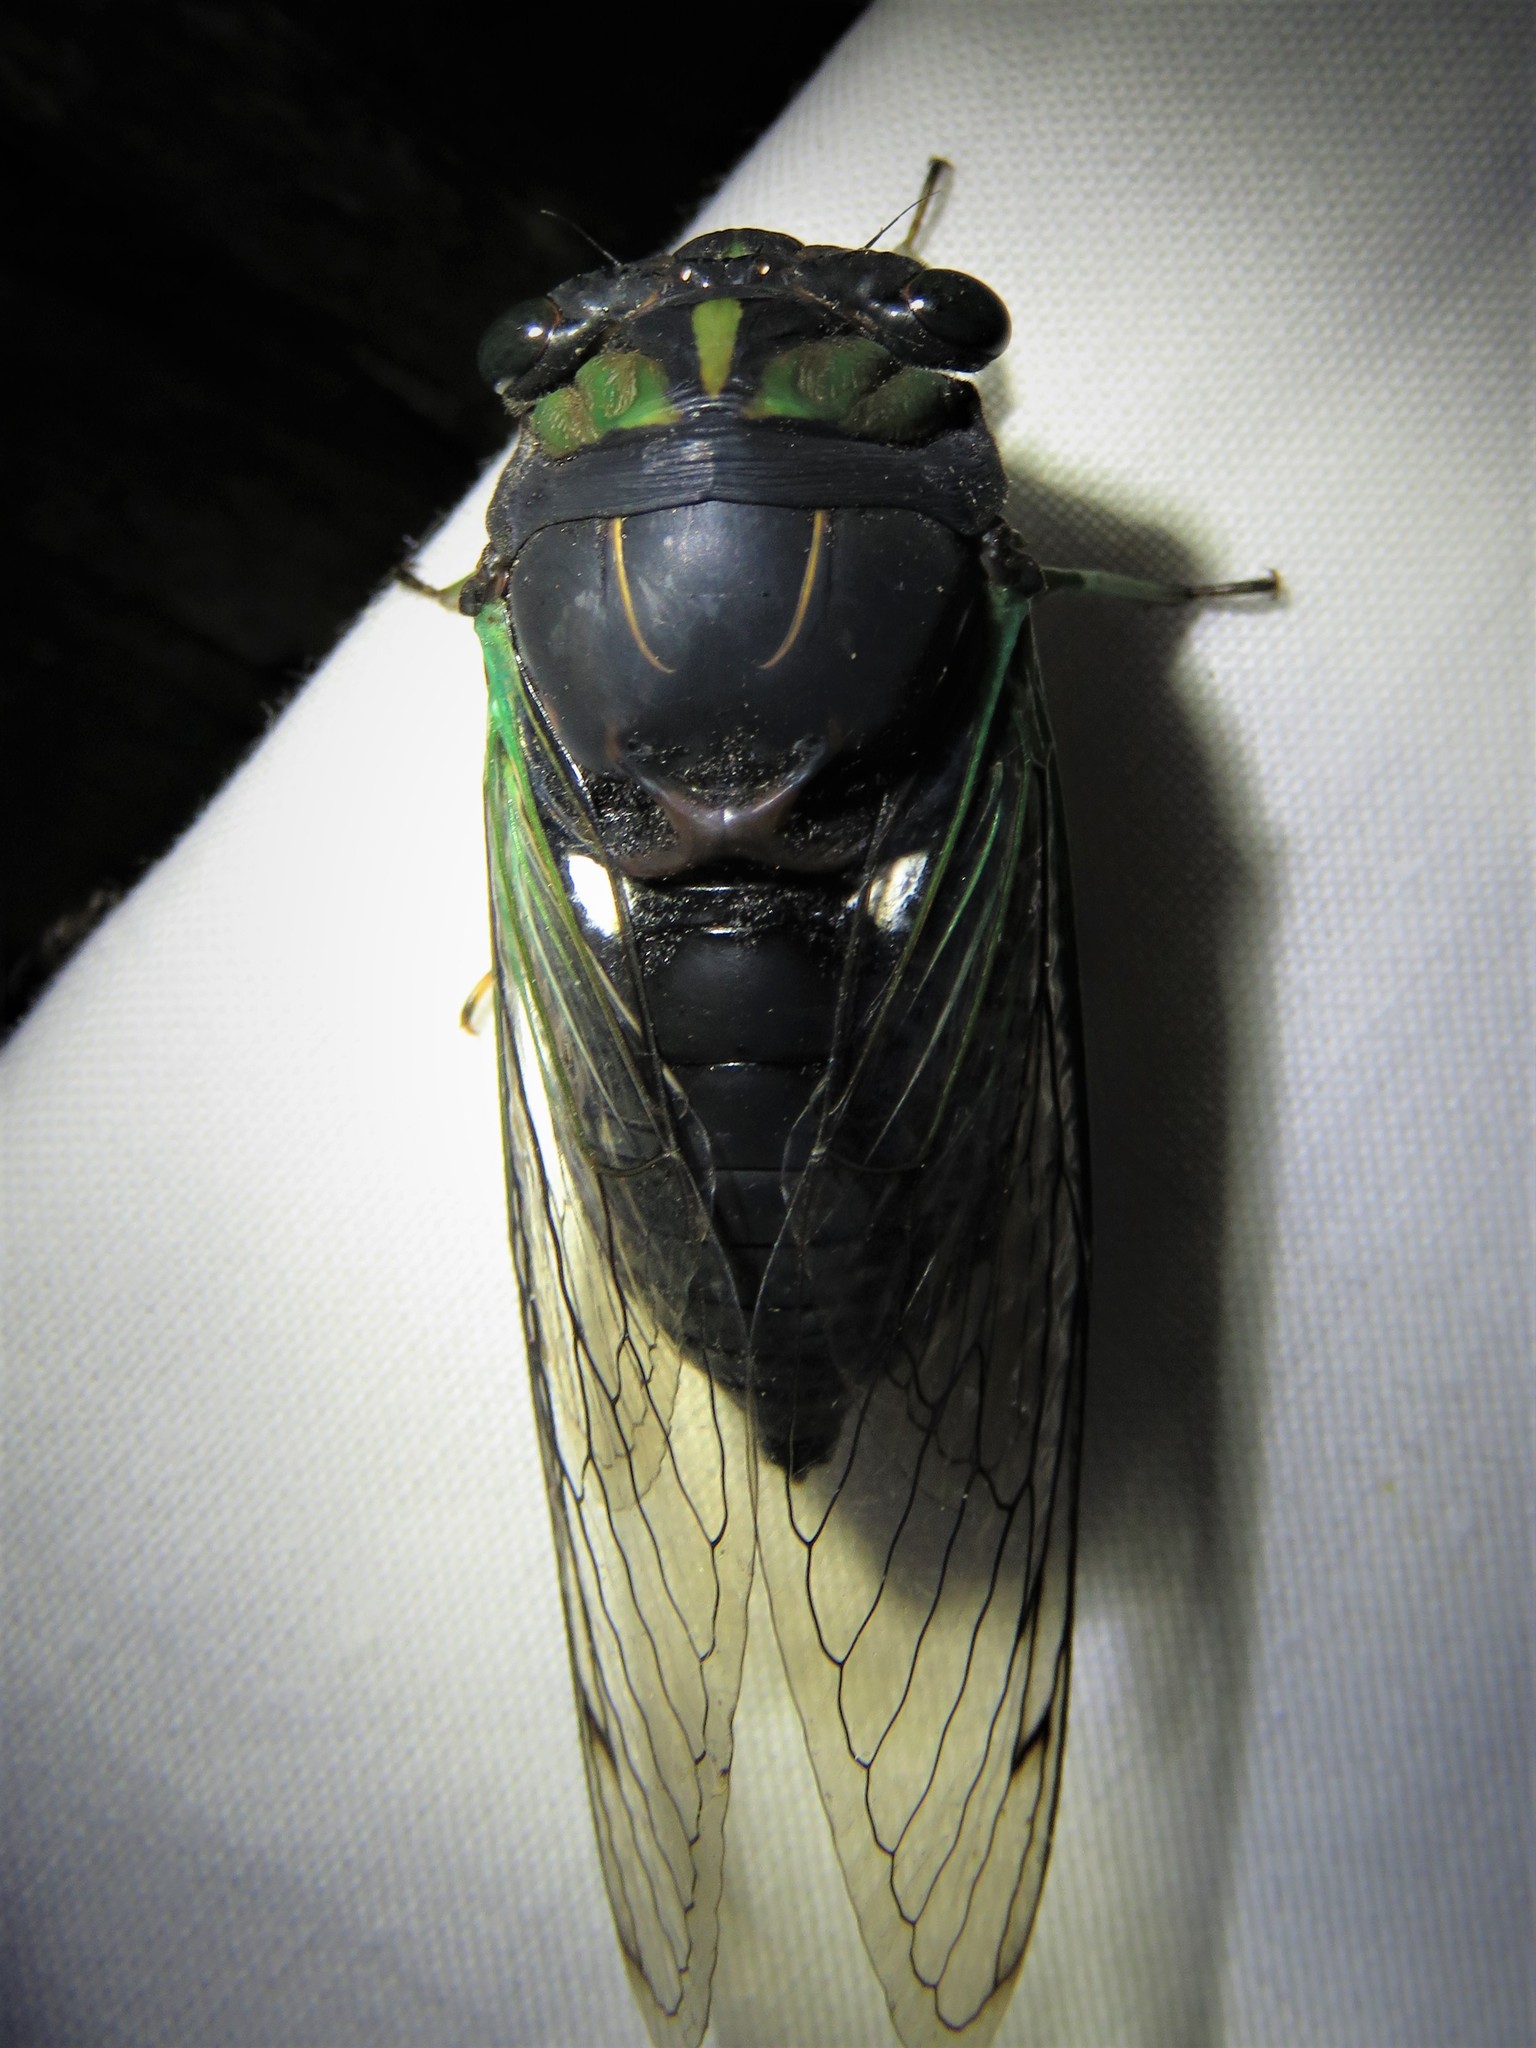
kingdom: Animalia
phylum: Arthropoda
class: Insecta
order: Hemiptera
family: Cicadidae
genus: Neotibicen
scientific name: Neotibicen tibicen
